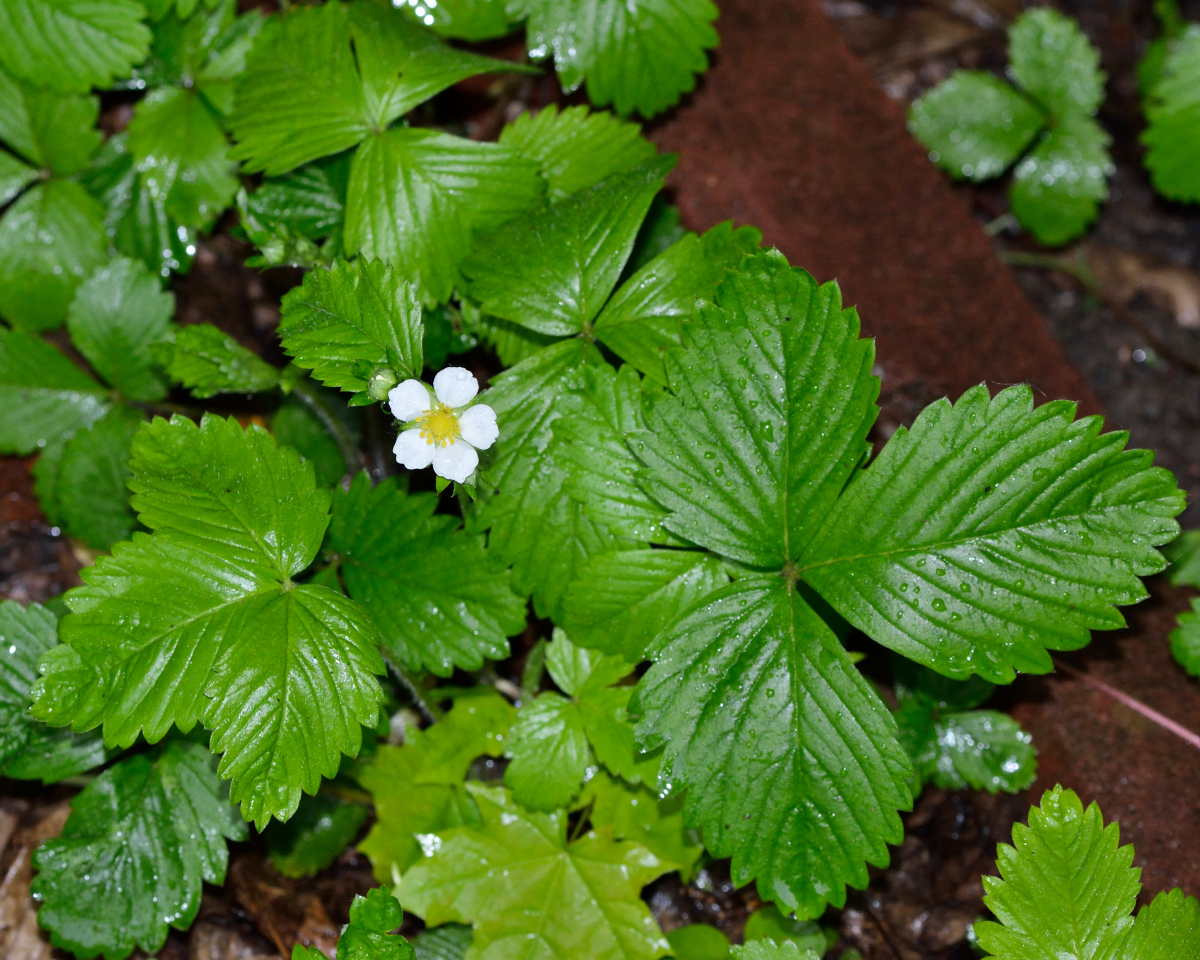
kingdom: Plantae
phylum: Tracheophyta
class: Magnoliopsida
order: Rosales
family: Rosaceae
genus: Fragaria
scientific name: Fragaria vesca
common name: Wild strawberry
